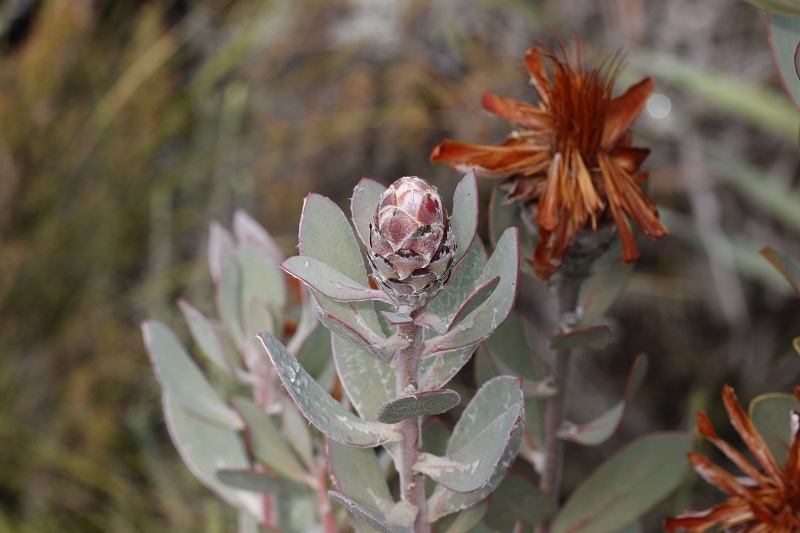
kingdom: Plantae
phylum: Tracheophyta
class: Magnoliopsida
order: Proteales
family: Proteaceae
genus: Protea
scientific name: Protea punctata
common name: Water sugarbush
